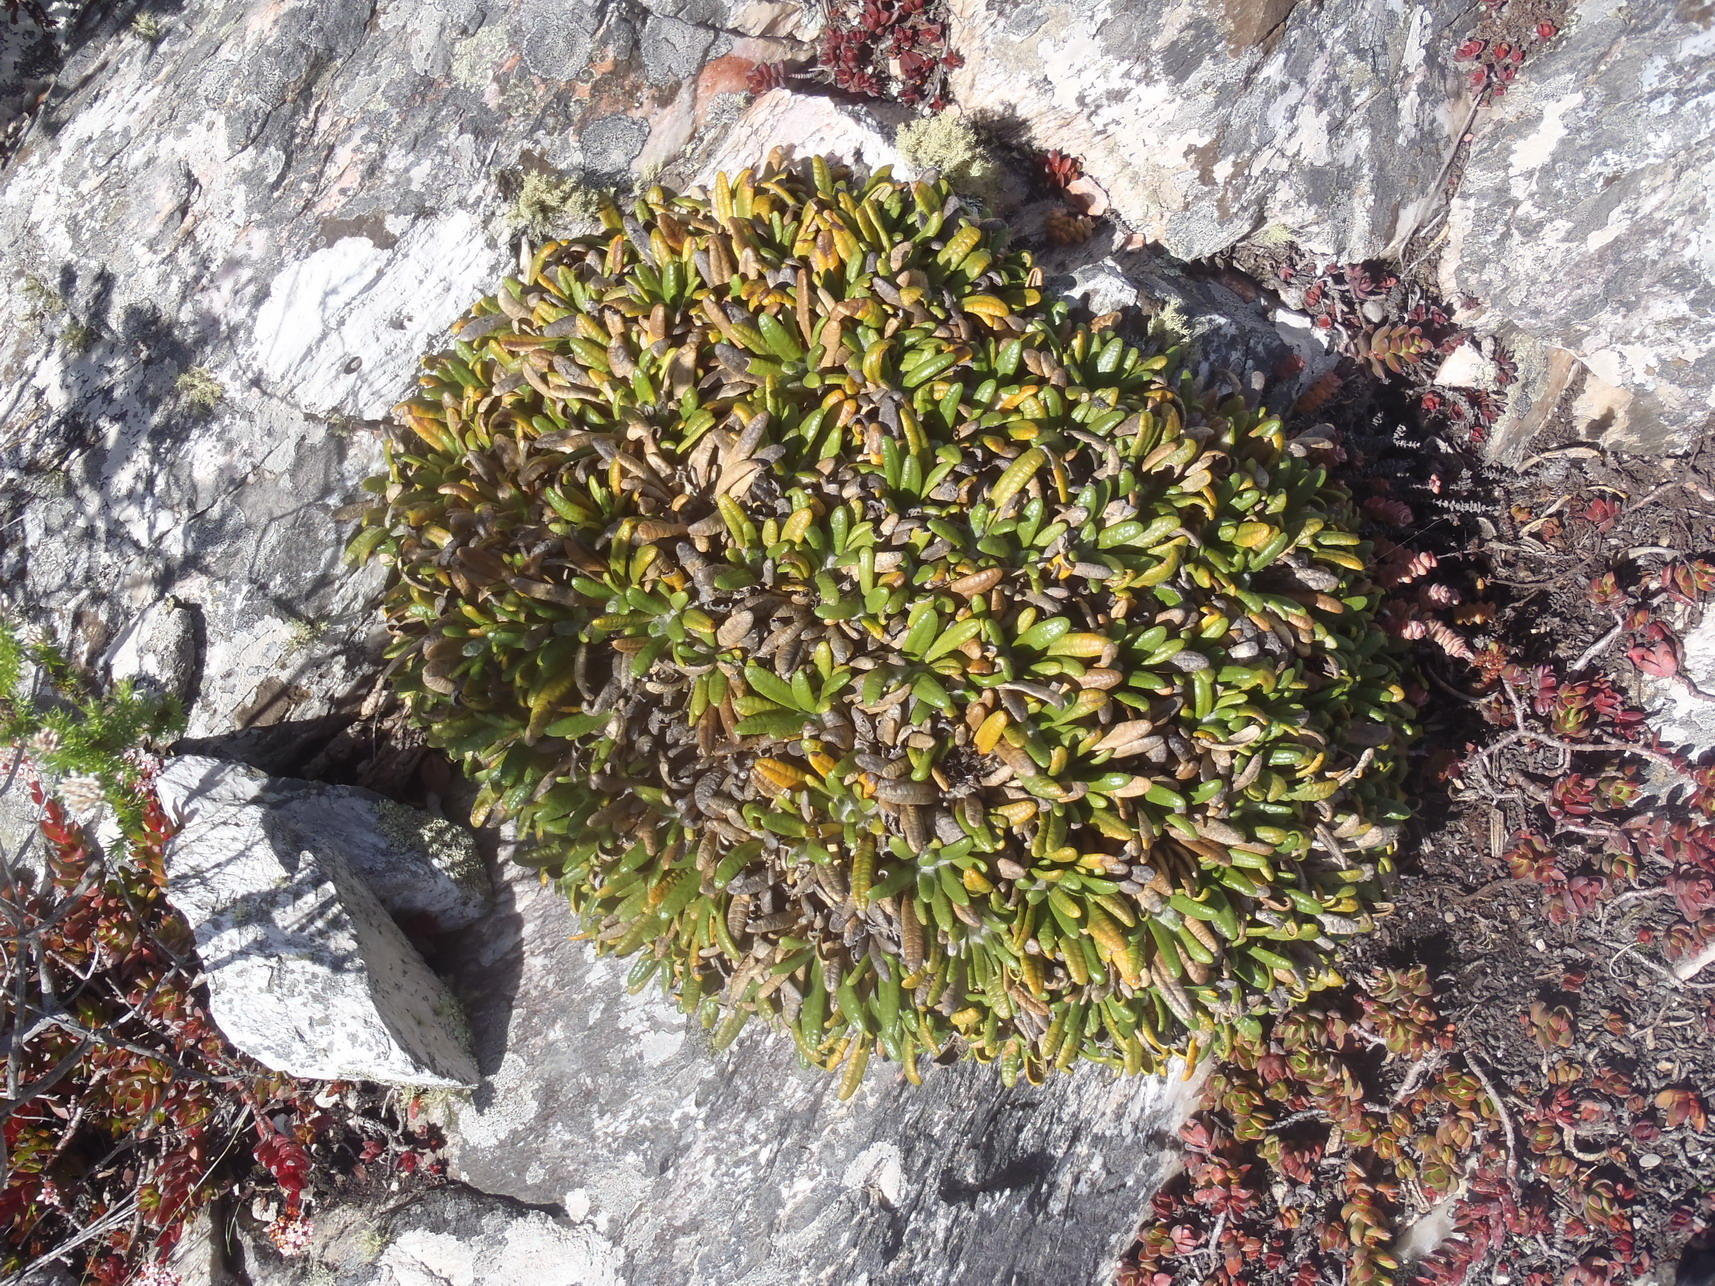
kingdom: Plantae
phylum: Tracheophyta
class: Magnoliopsida
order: Asterales
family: Asteraceae
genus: Oldenburgia
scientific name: Oldenburgia paradoxa
